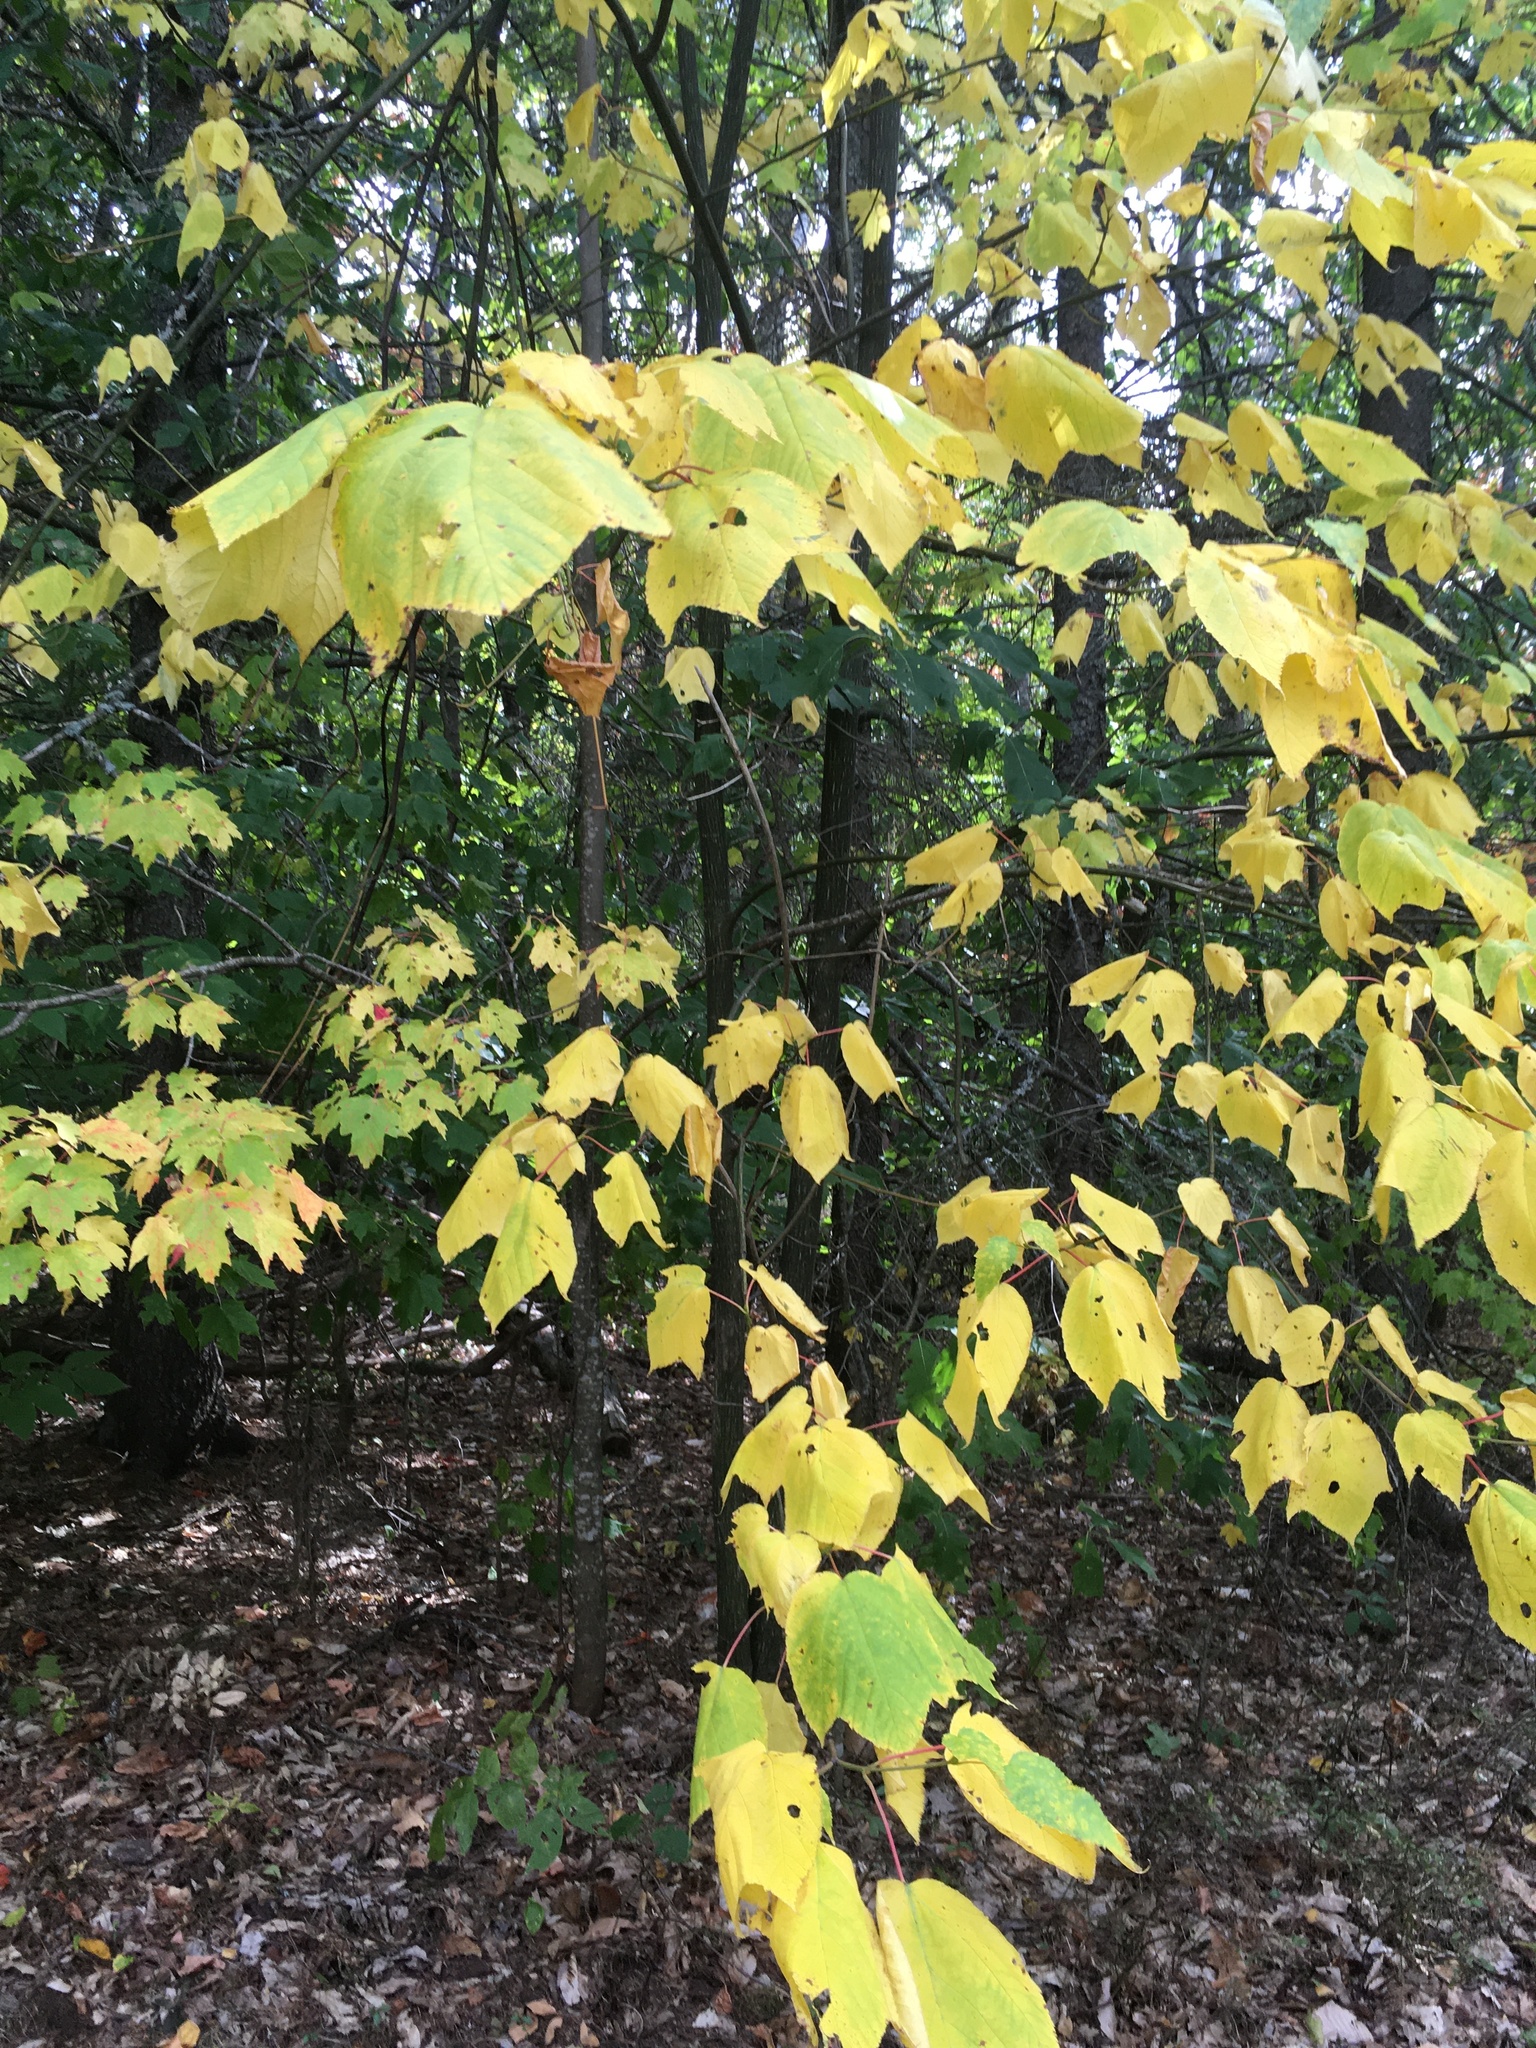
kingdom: Plantae
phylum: Tracheophyta
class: Magnoliopsida
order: Sapindales
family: Sapindaceae
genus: Acer
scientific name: Acer pensylvanicum
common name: Moosewood
